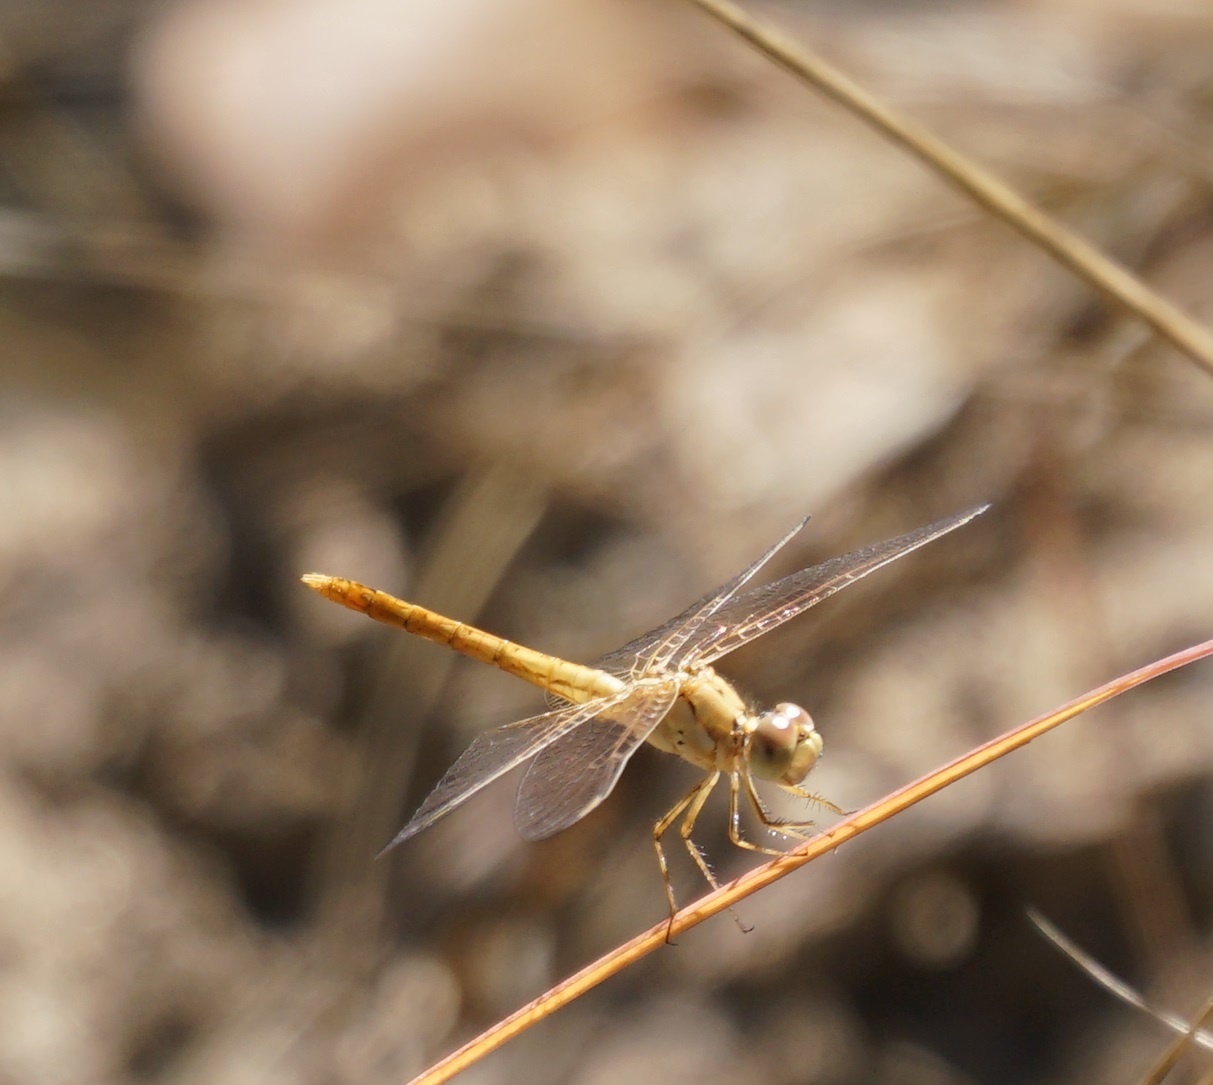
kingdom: Animalia
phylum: Arthropoda
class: Insecta
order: Odonata
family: Libellulidae
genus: Diplacodes
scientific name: Diplacodes haematodes
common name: Scarlet percher
